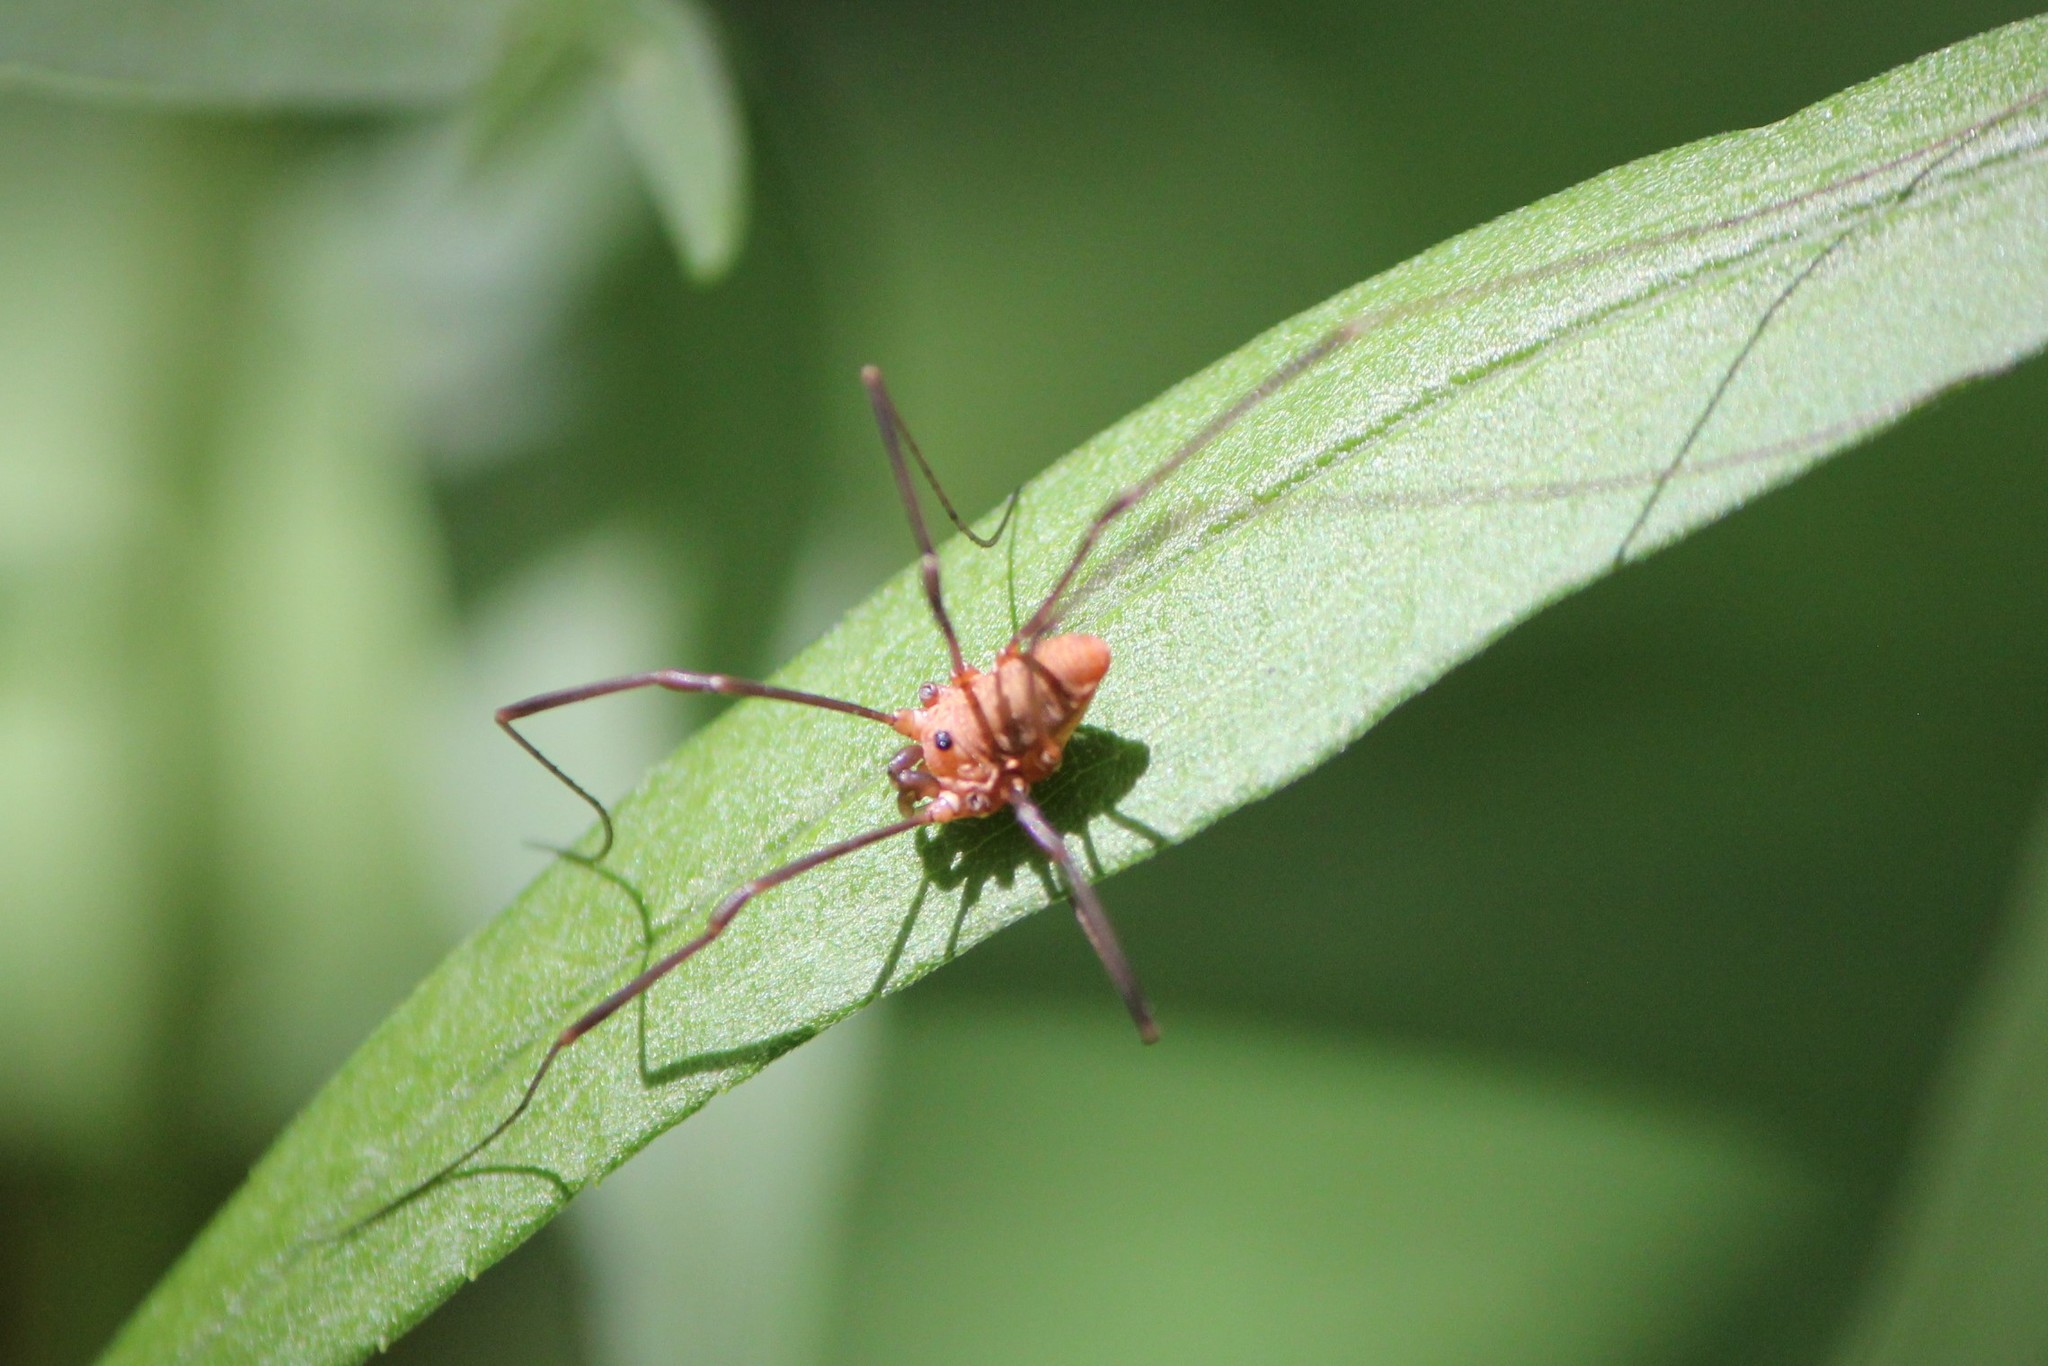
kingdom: Animalia
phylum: Arthropoda
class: Arachnida
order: Opiliones
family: Sclerosomatidae
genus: Leiobunum
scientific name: Leiobunum calcar
